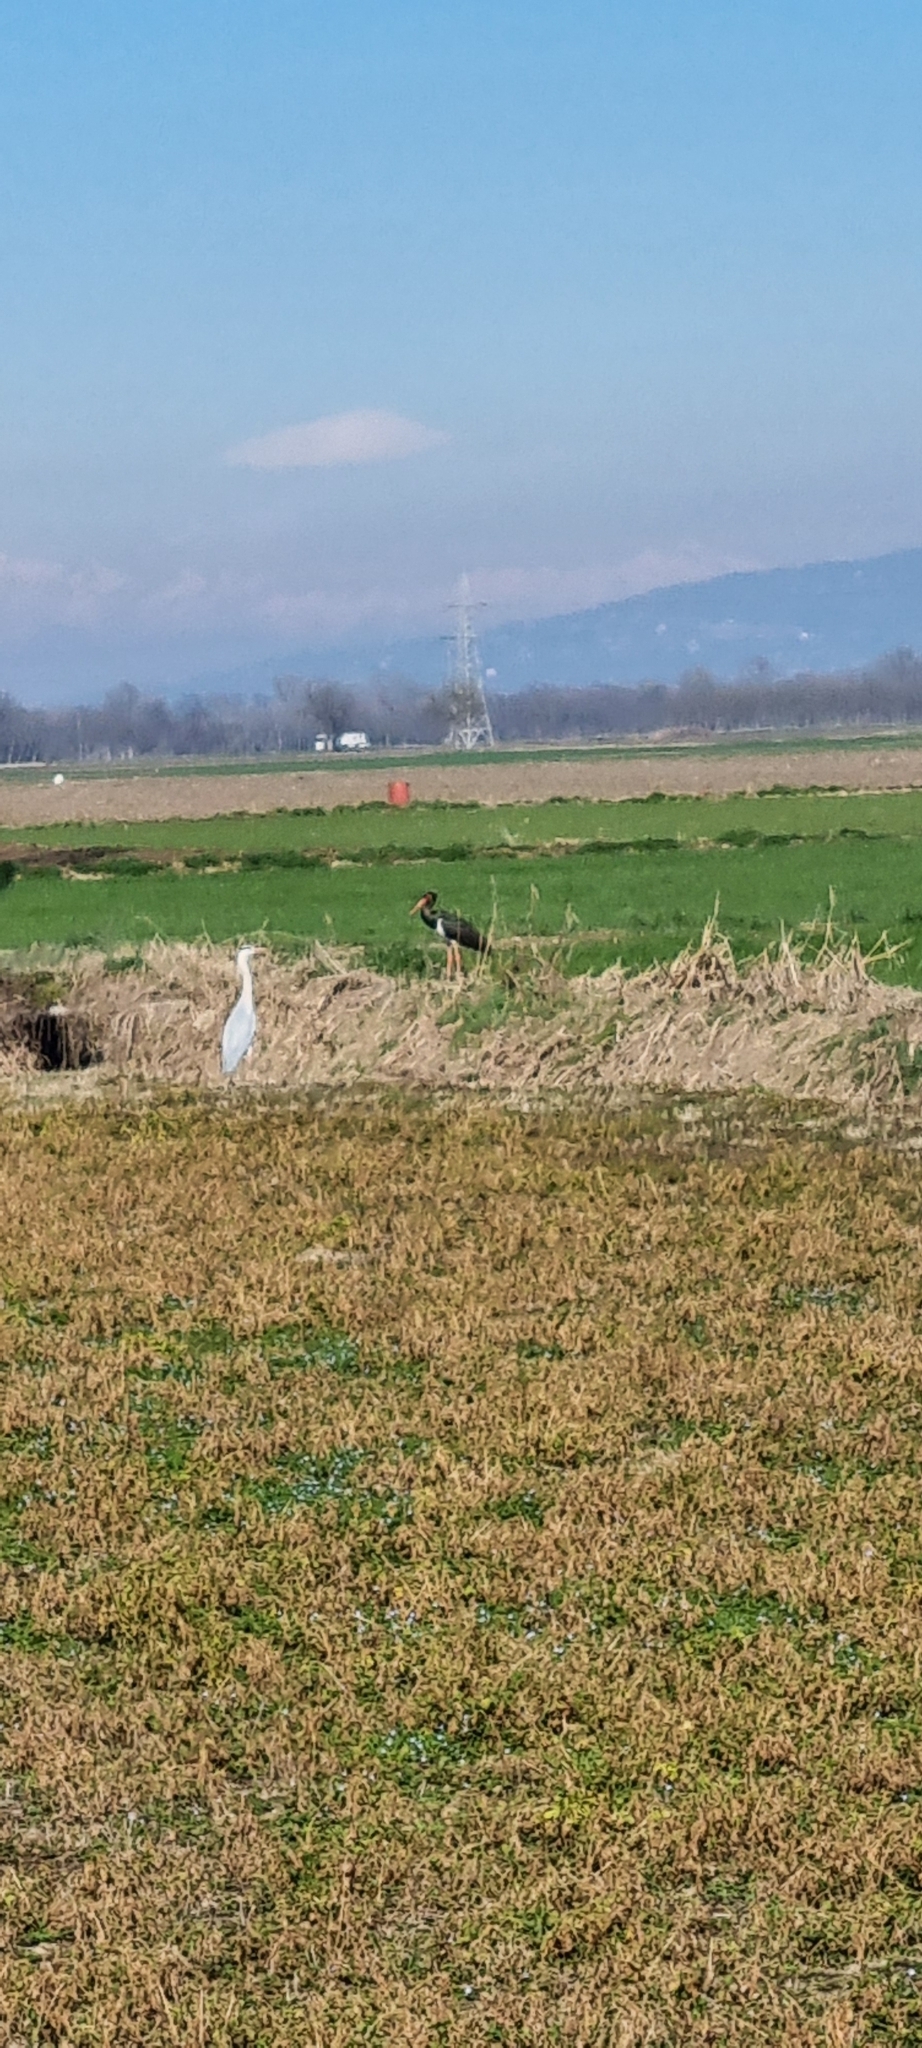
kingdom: Animalia
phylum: Chordata
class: Aves
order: Ciconiiformes
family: Ciconiidae
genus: Ciconia
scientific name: Ciconia nigra
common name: Black stork
